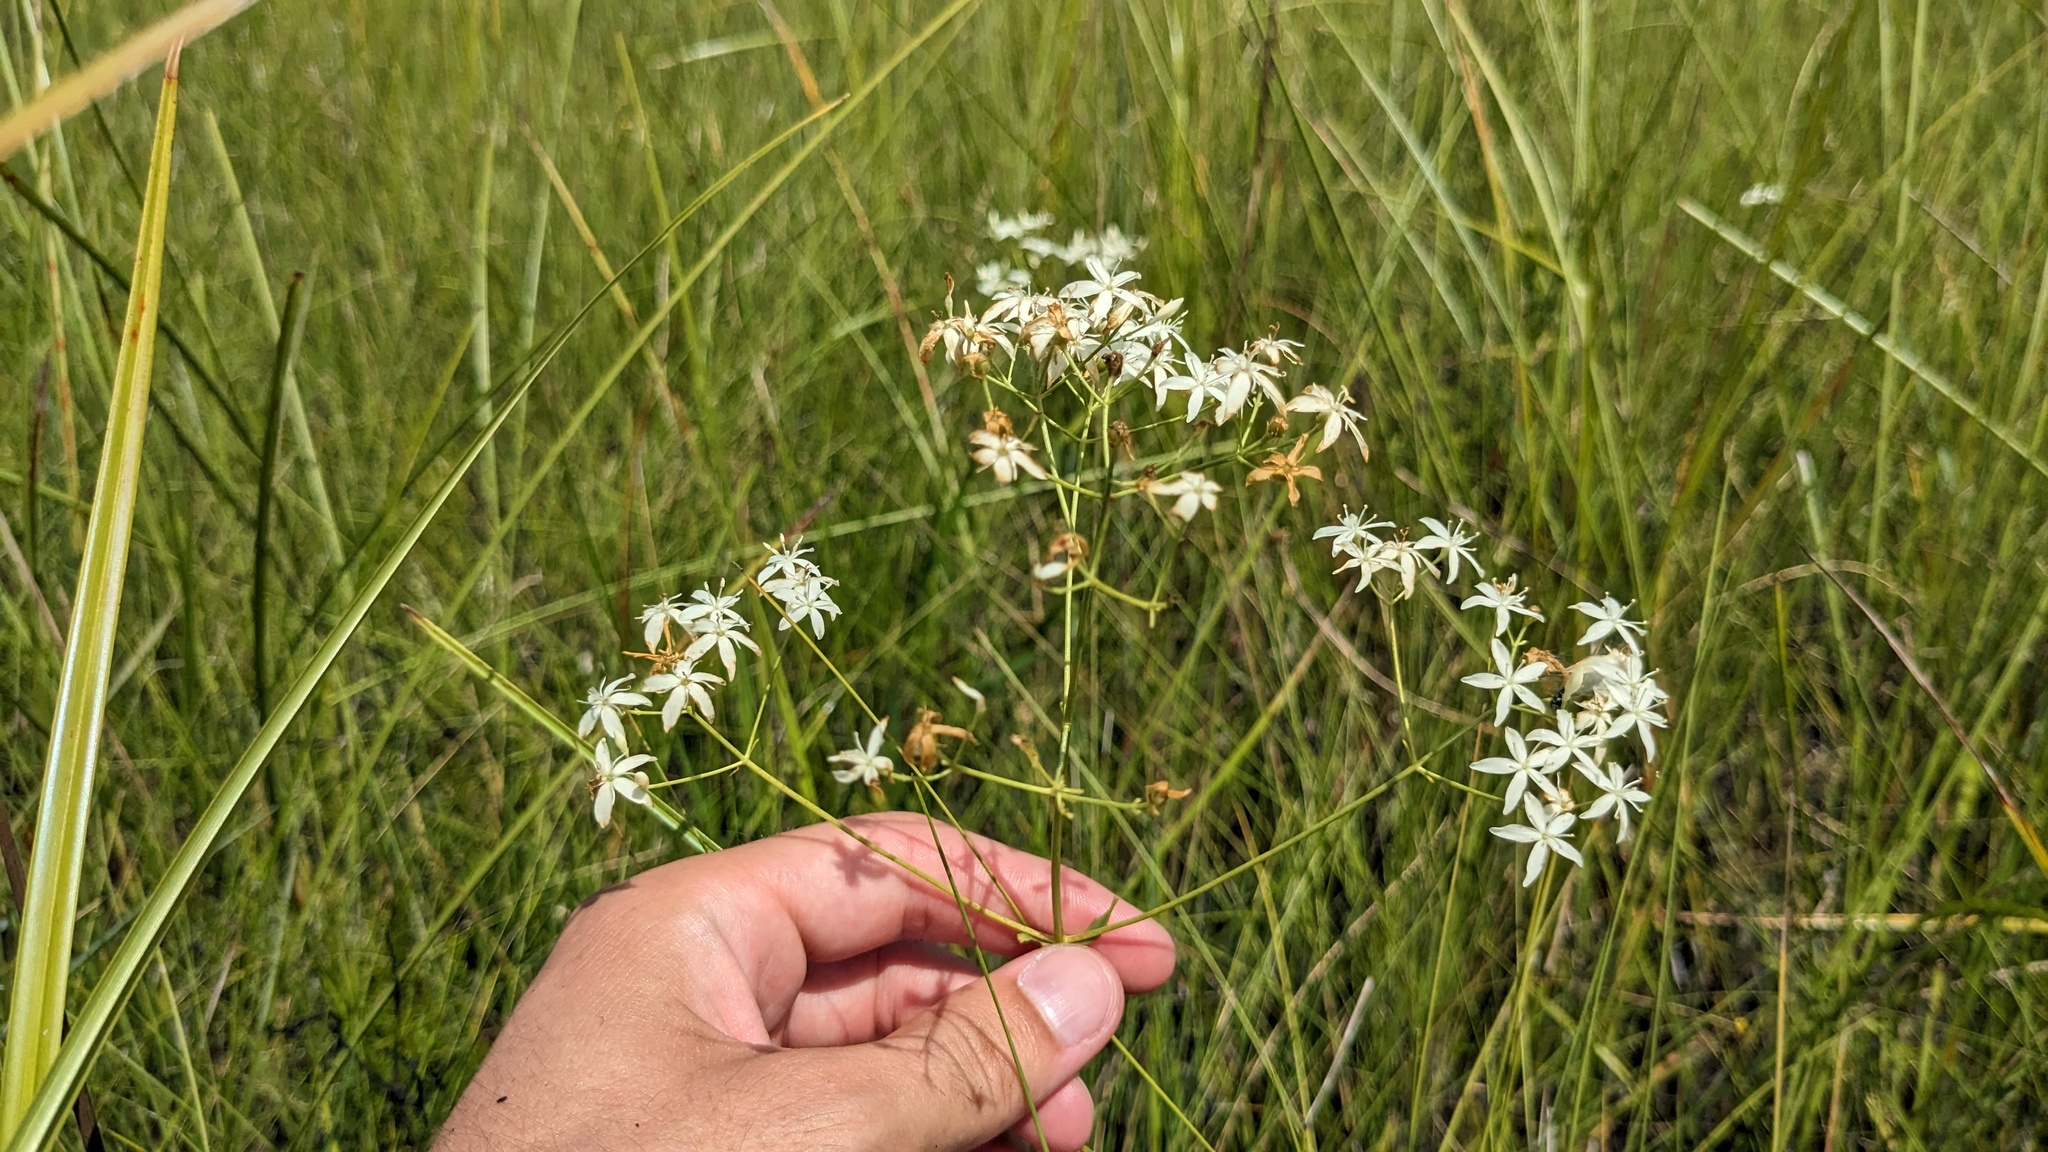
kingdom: Plantae
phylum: Tracheophyta
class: Magnoliopsida
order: Gentianales
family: Gentianaceae
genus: Sabatia
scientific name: Sabatia macrophylla
